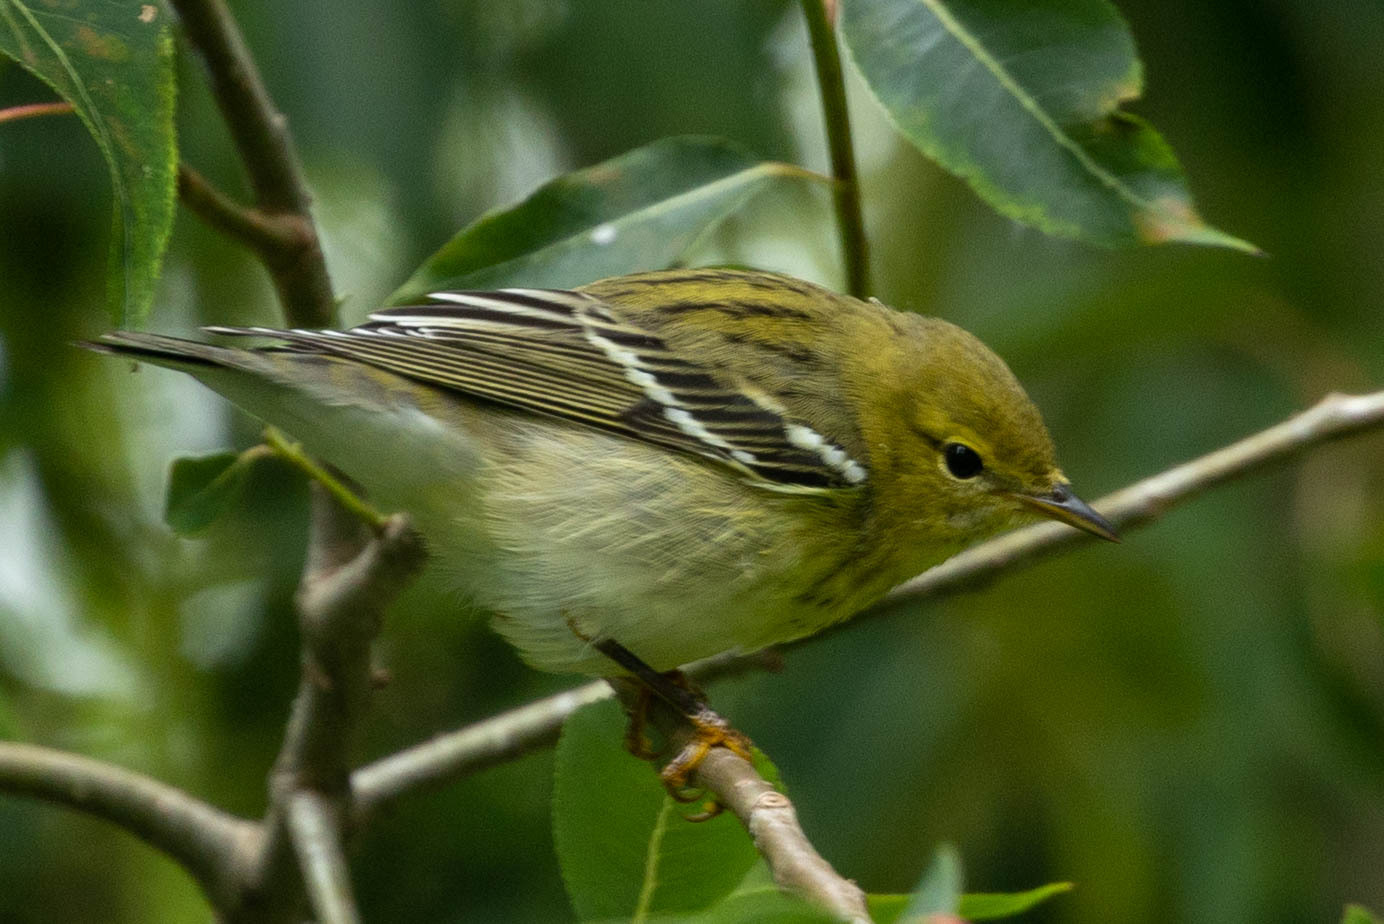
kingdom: Animalia
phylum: Chordata
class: Aves
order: Passeriformes
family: Parulidae
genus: Setophaga
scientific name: Setophaga striata
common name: Blackpoll warbler
